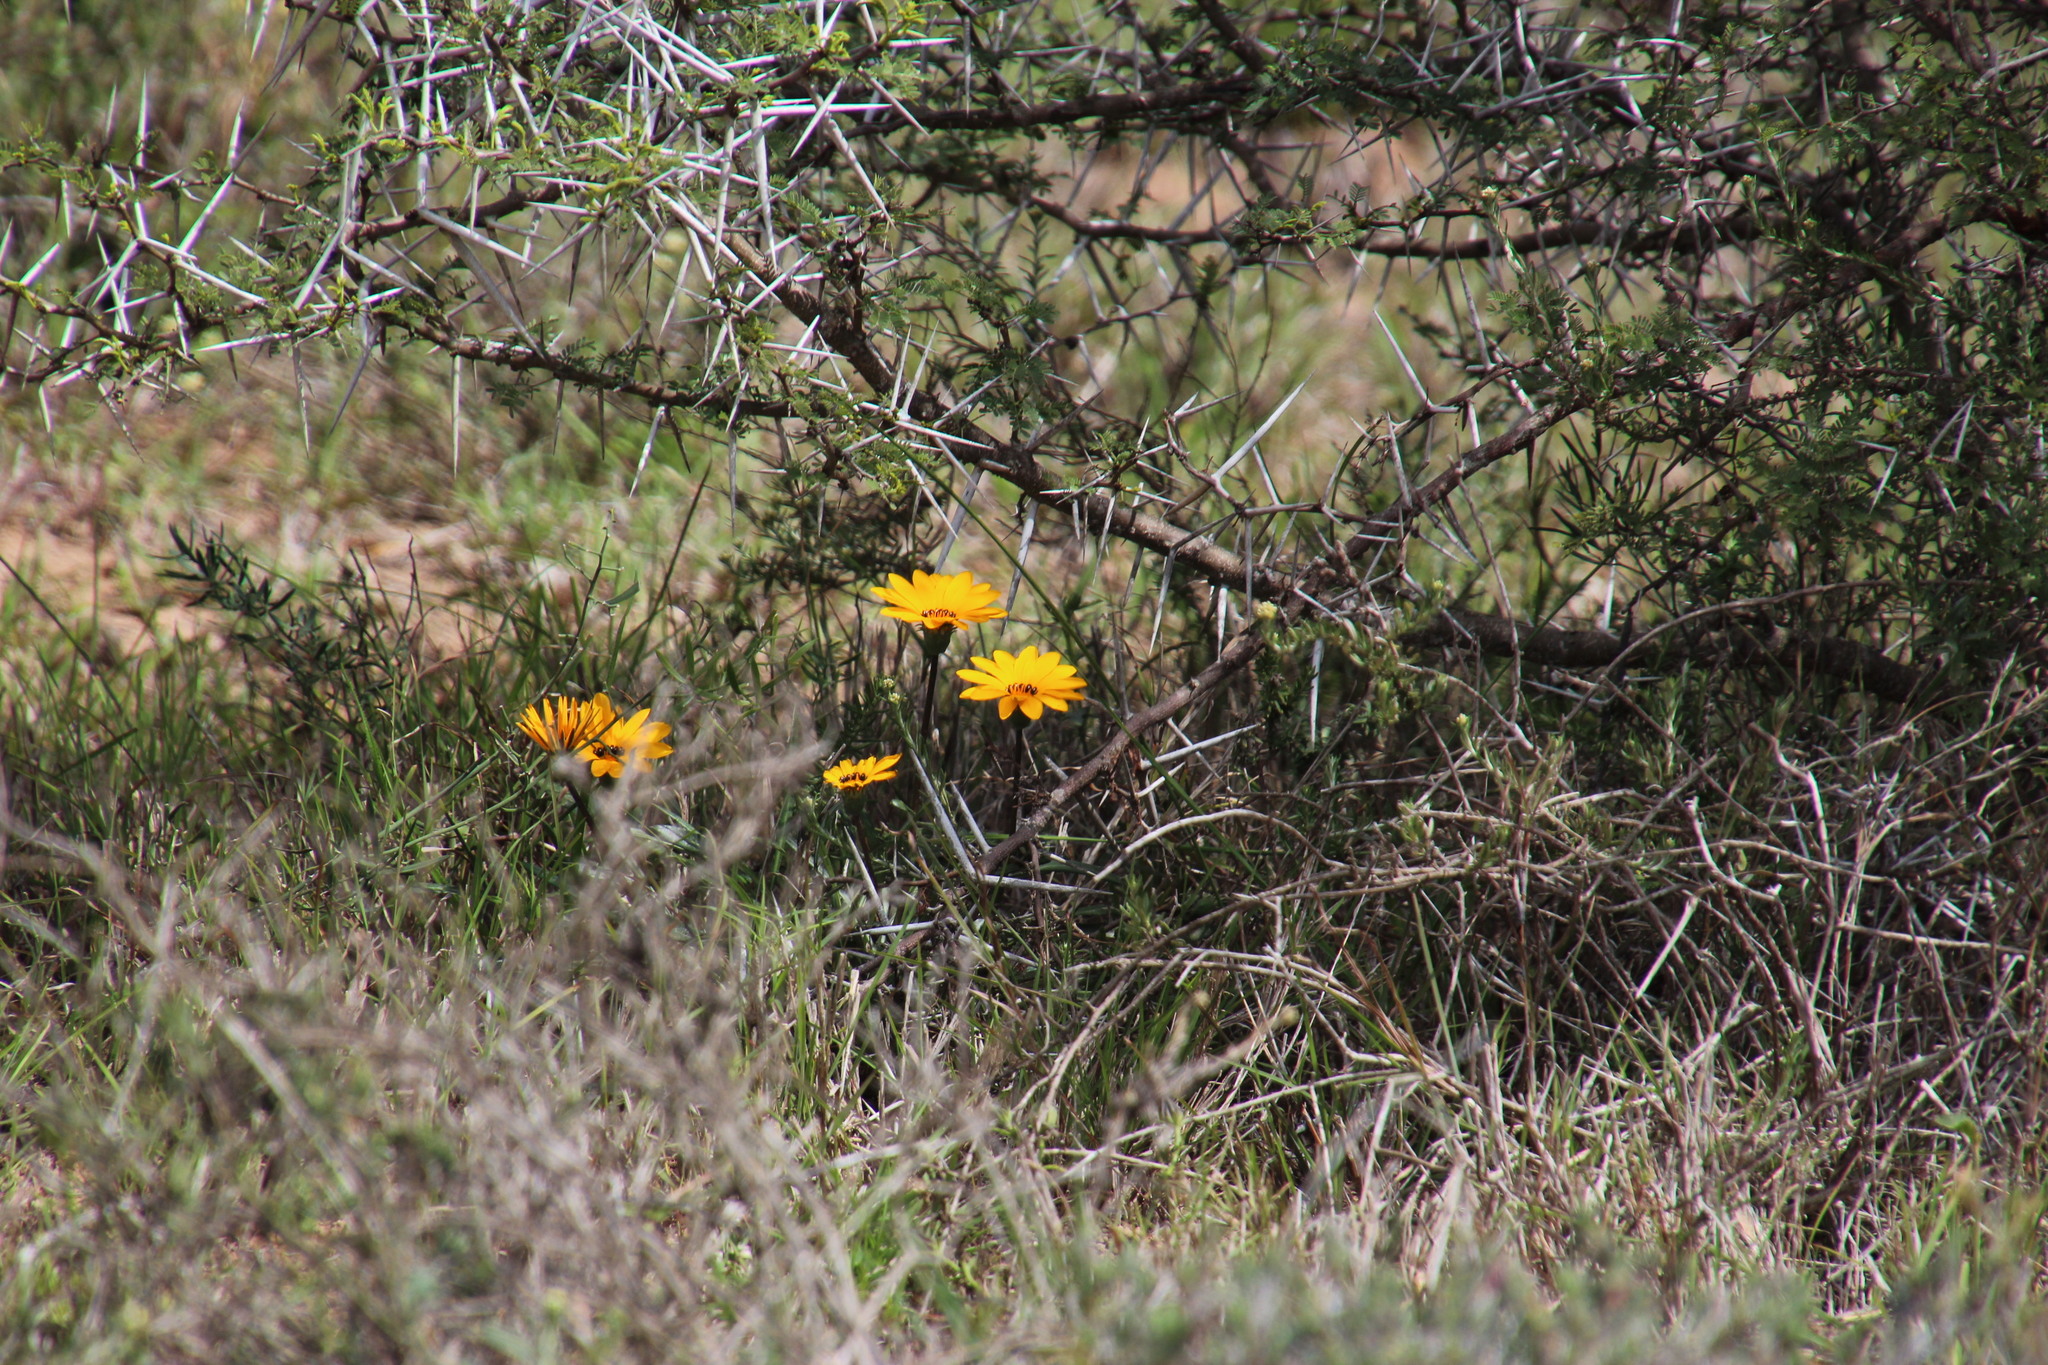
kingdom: Plantae
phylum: Tracheophyta
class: Magnoliopsida
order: Asterales
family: Asteraceae
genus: Gazania
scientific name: Gazania krebsiana
